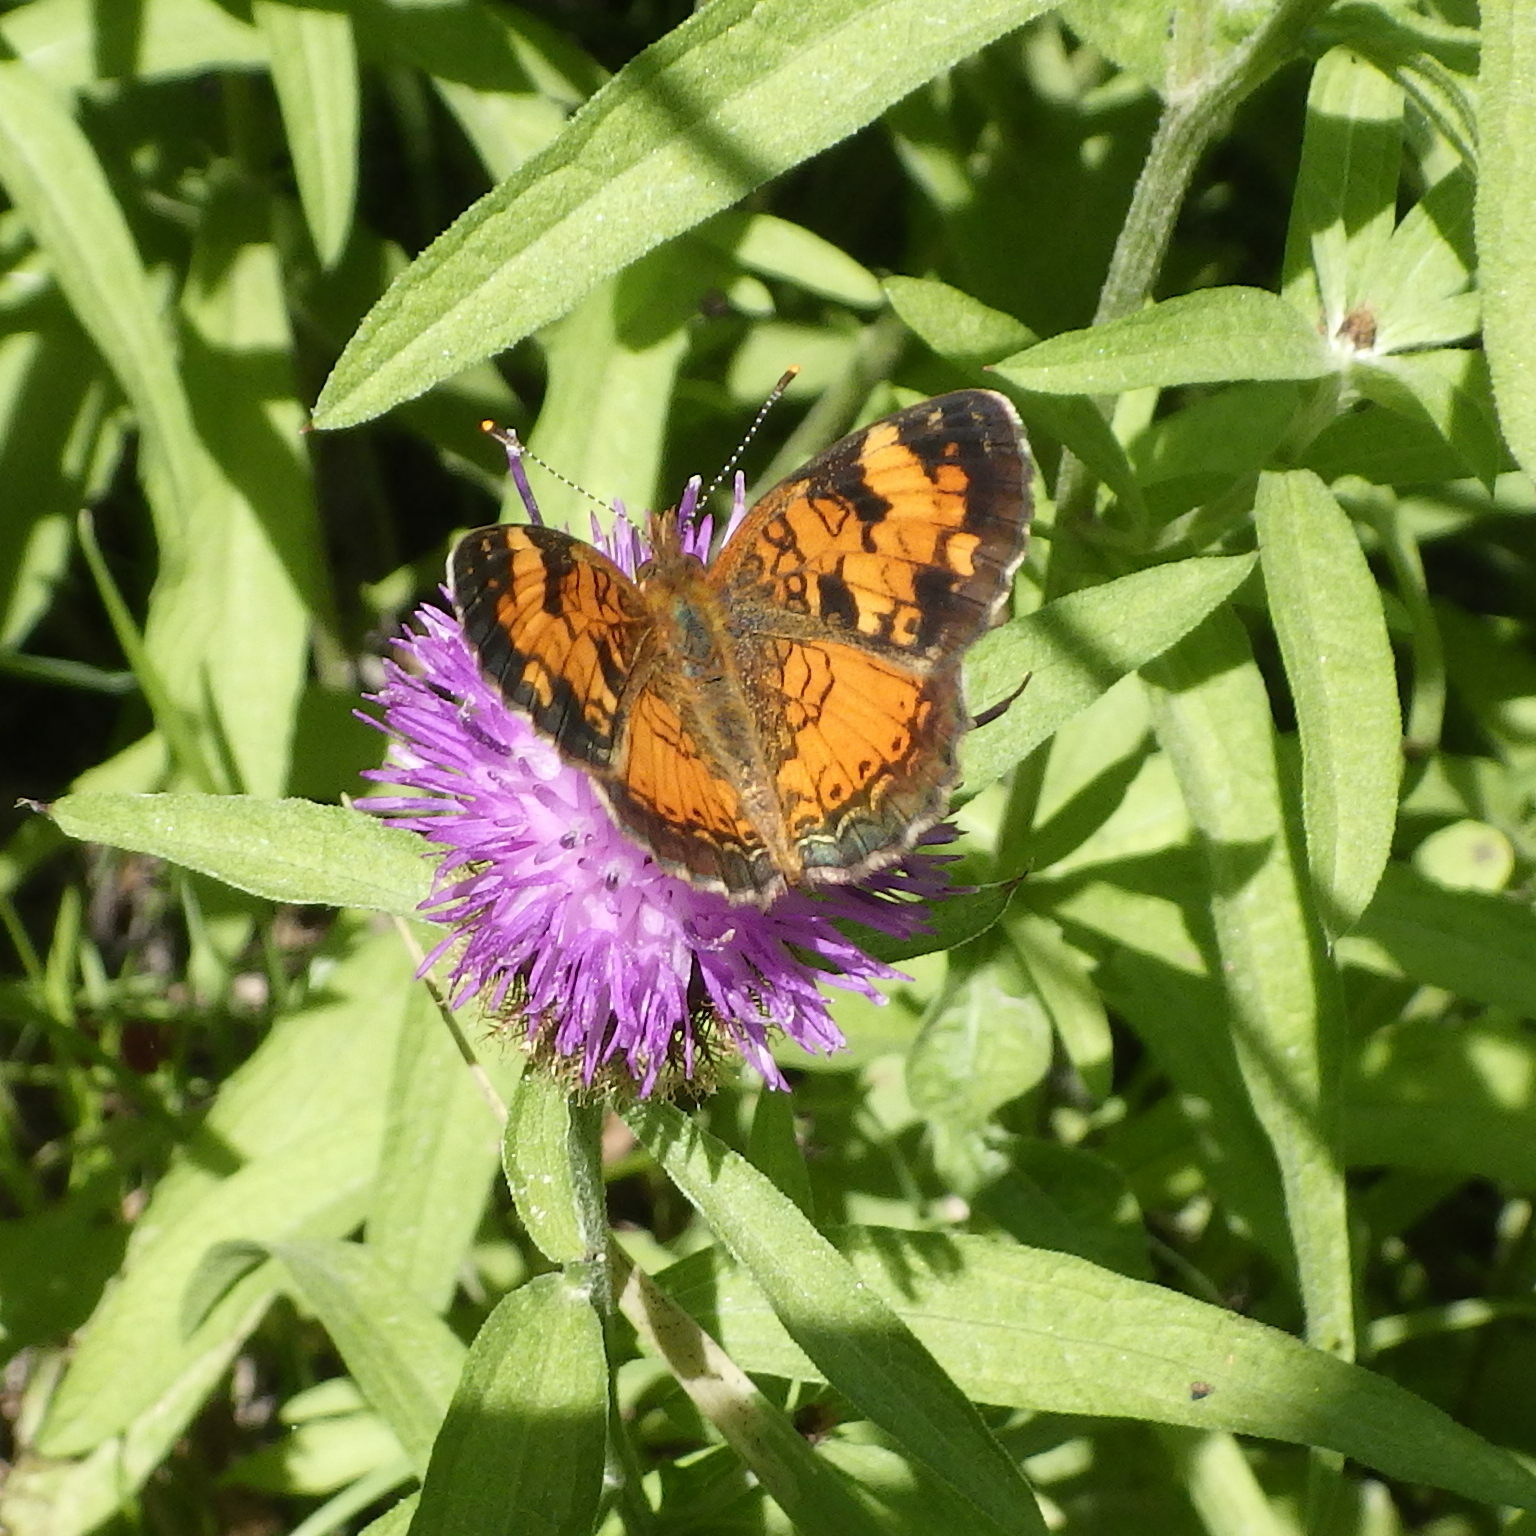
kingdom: Animalia
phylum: Arthropoda
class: Insecta
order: Lepidoptera
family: Nymphalidae
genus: Phyciodes
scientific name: Phyciodes tharos
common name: Pearl crescent
